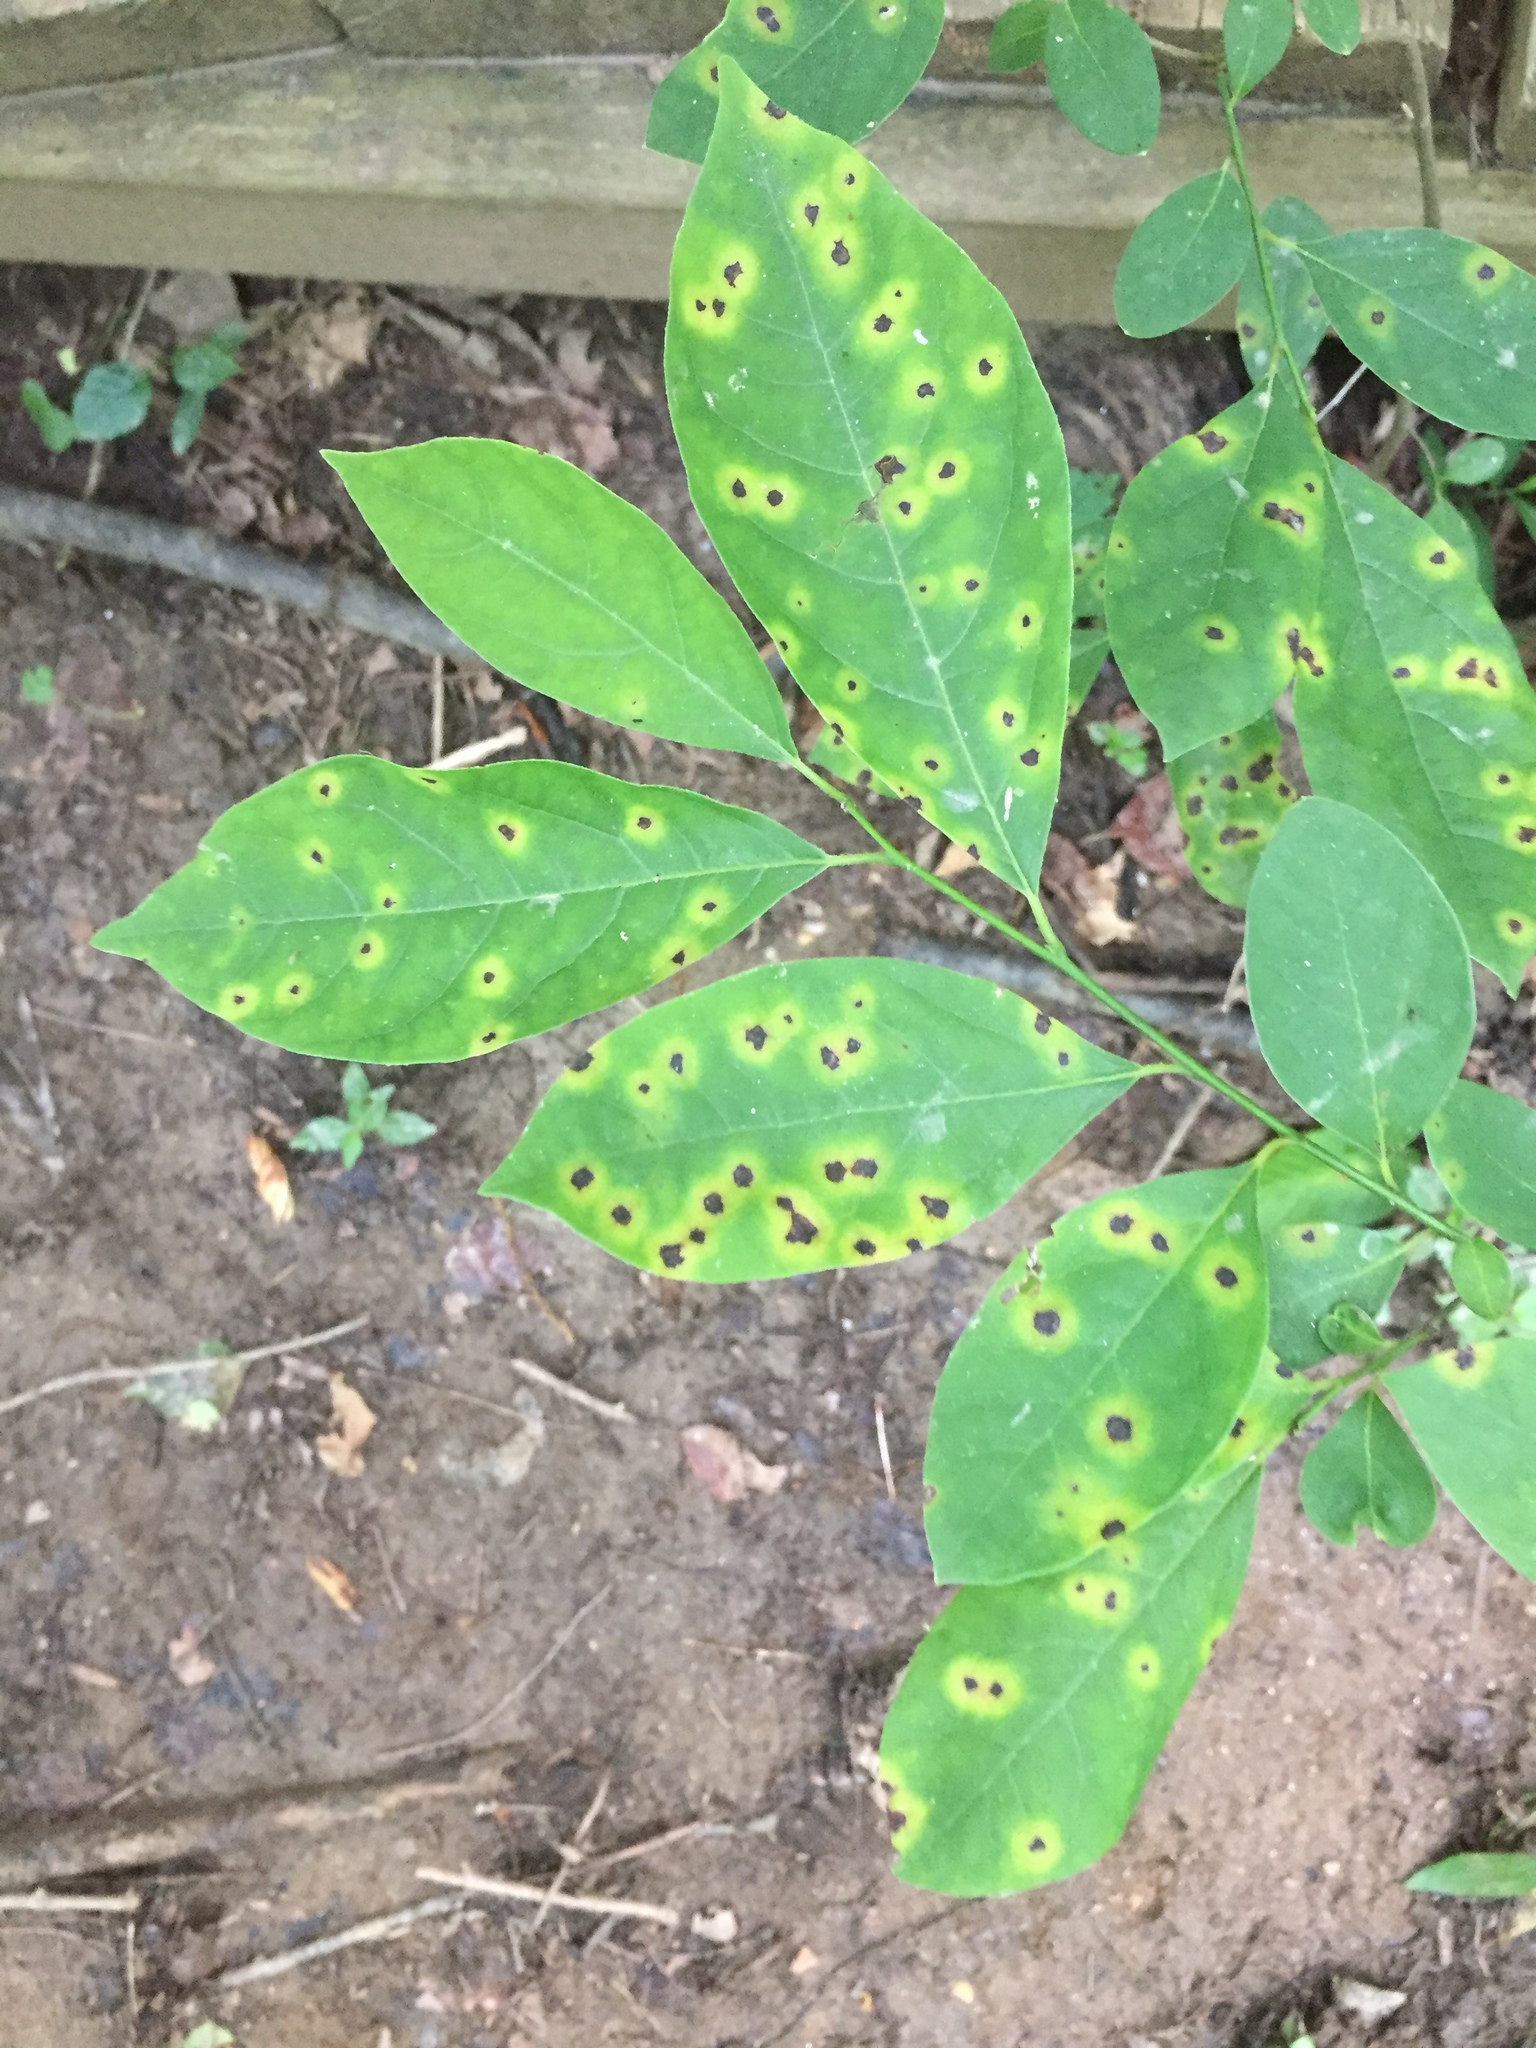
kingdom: Plantae
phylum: Tracheophyta
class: Magnoliopsida
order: Laurales
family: Lauraceae
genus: Lindera
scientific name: Lindera benzoin
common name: Spicebush
